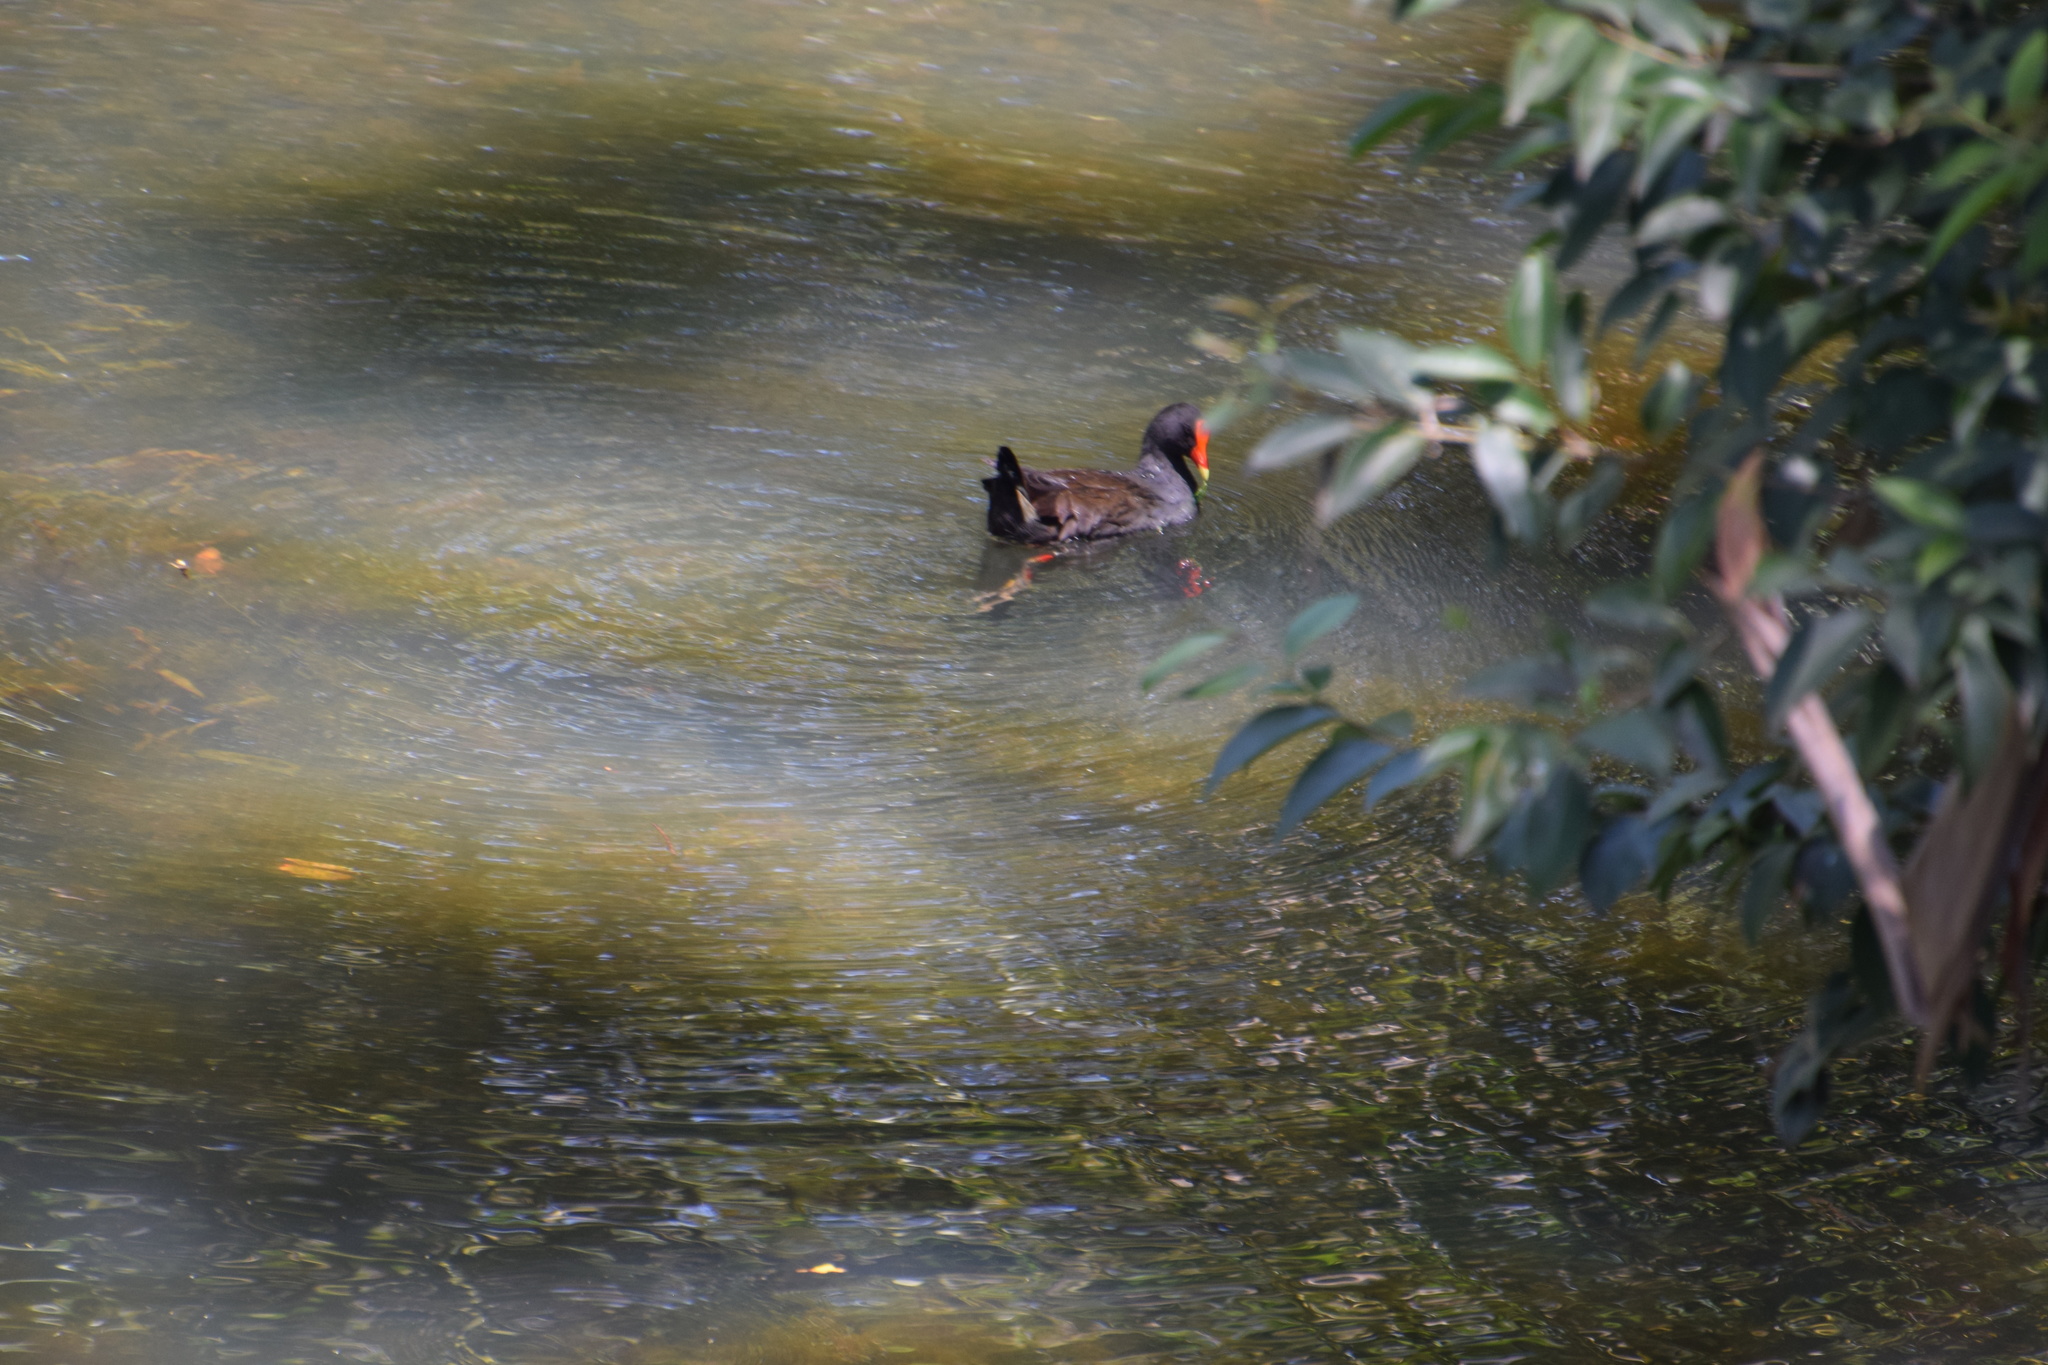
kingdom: Animalia
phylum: Chordata
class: Aves
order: Gruiformes
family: Rallidae
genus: Gallinula
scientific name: Gallinula tenebrosa
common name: Dusky moorhen
